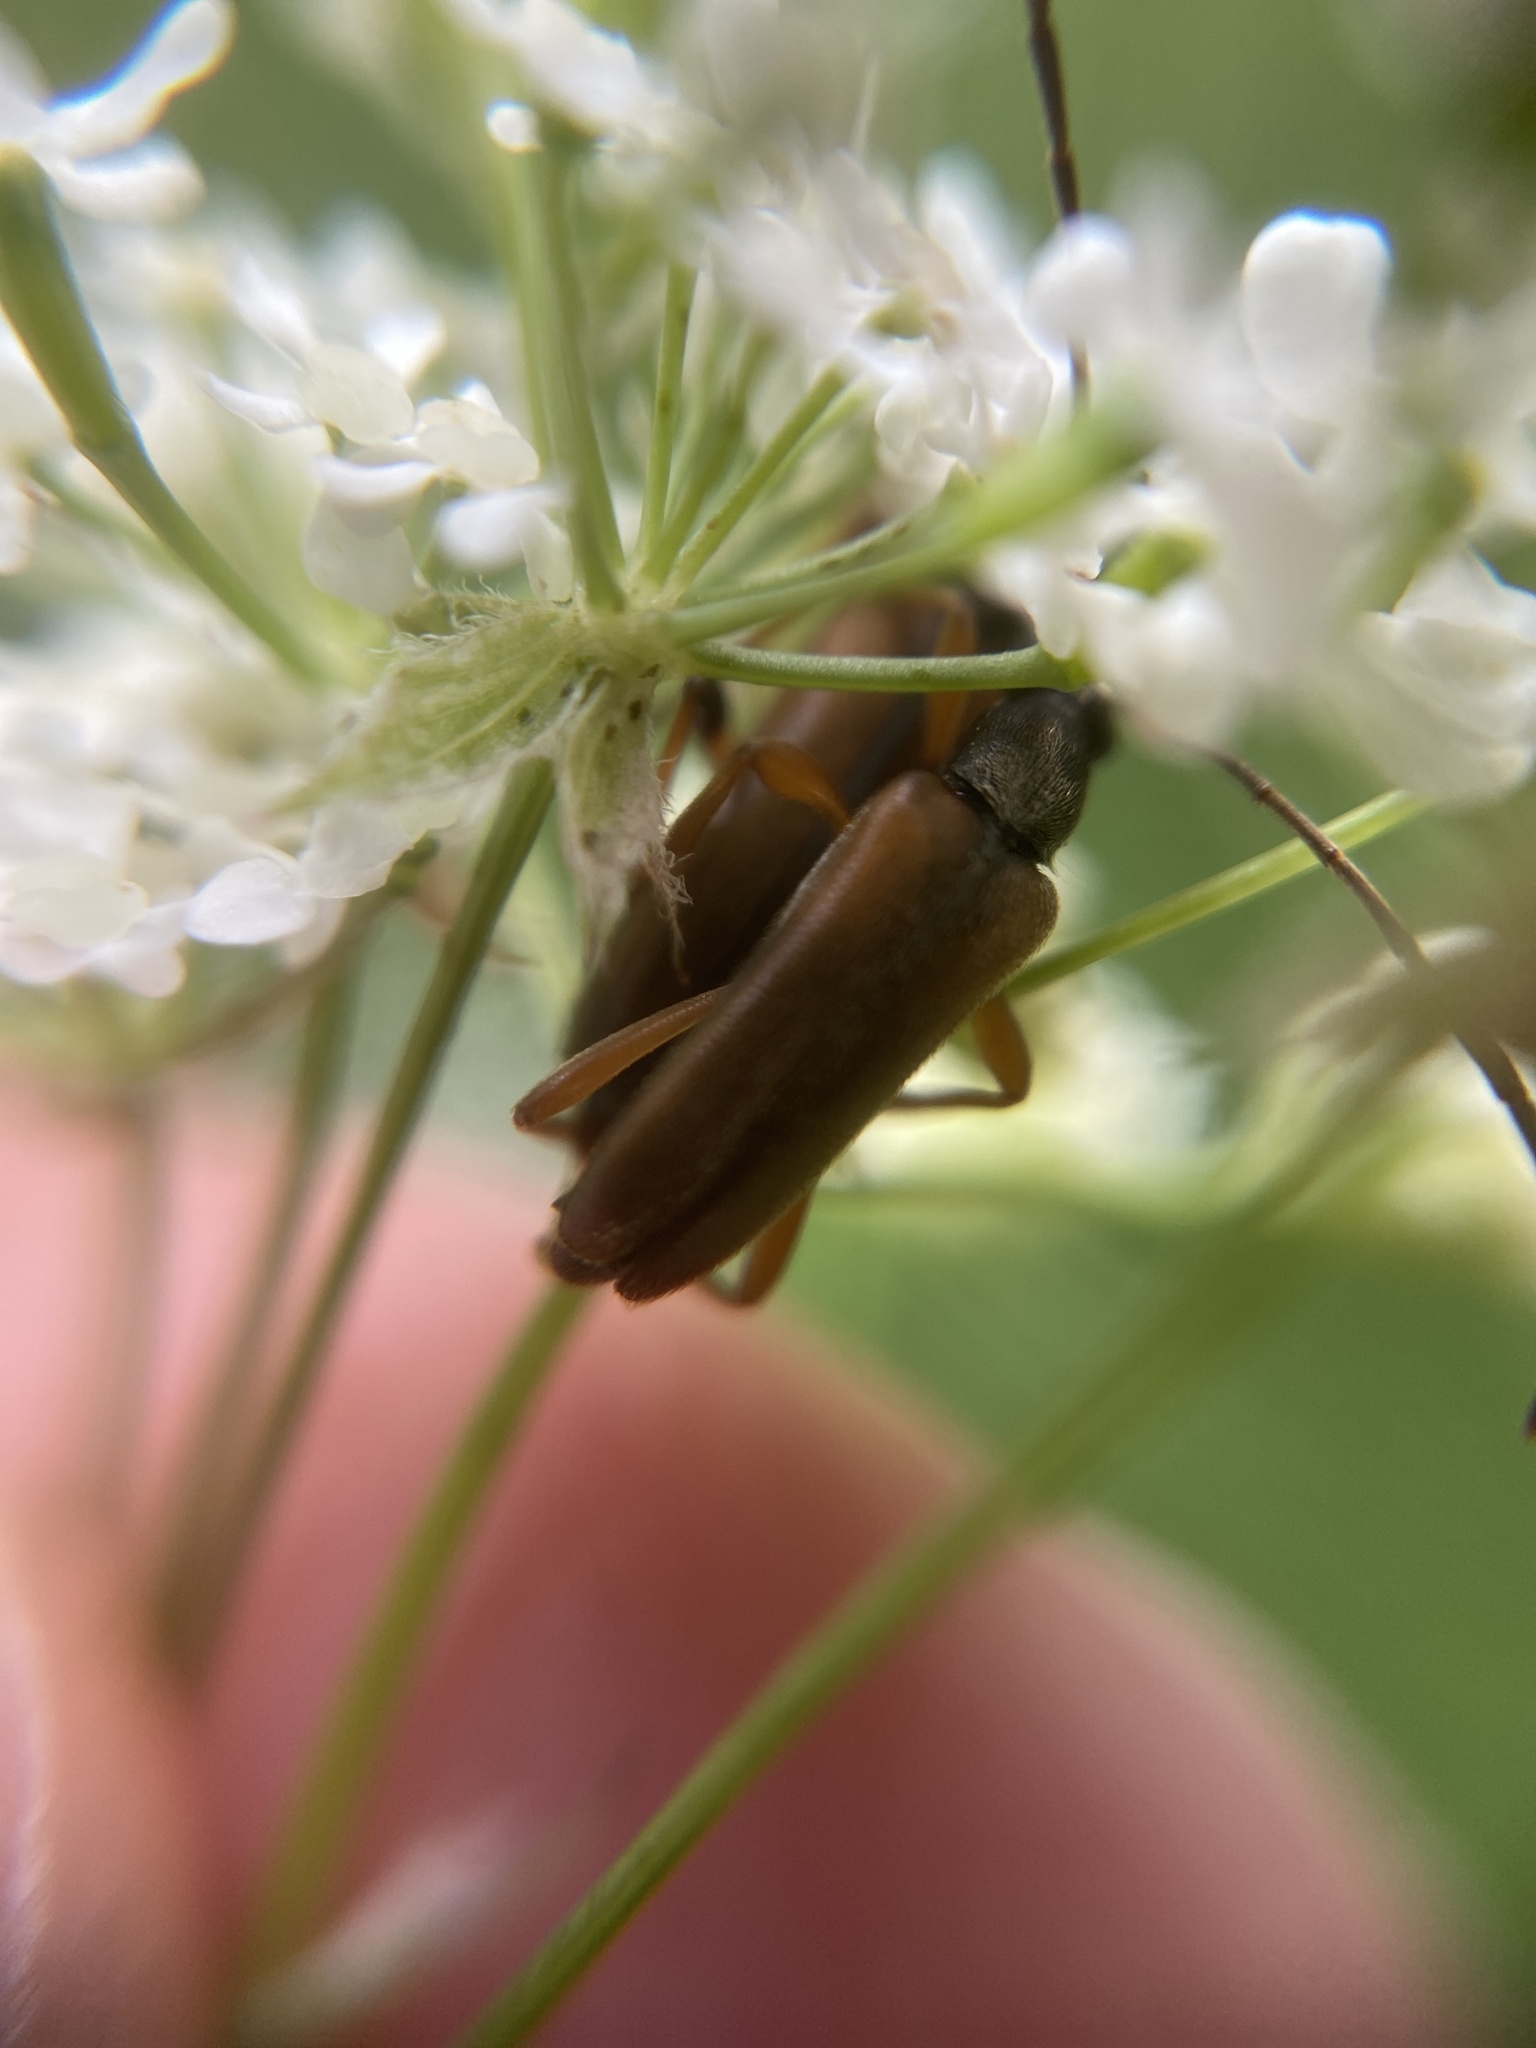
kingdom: Animalia
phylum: Arthropoda
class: Insecta
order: Coleoptera
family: Cerambycidae
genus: Alosterna
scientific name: Alosterna tabacicolor
